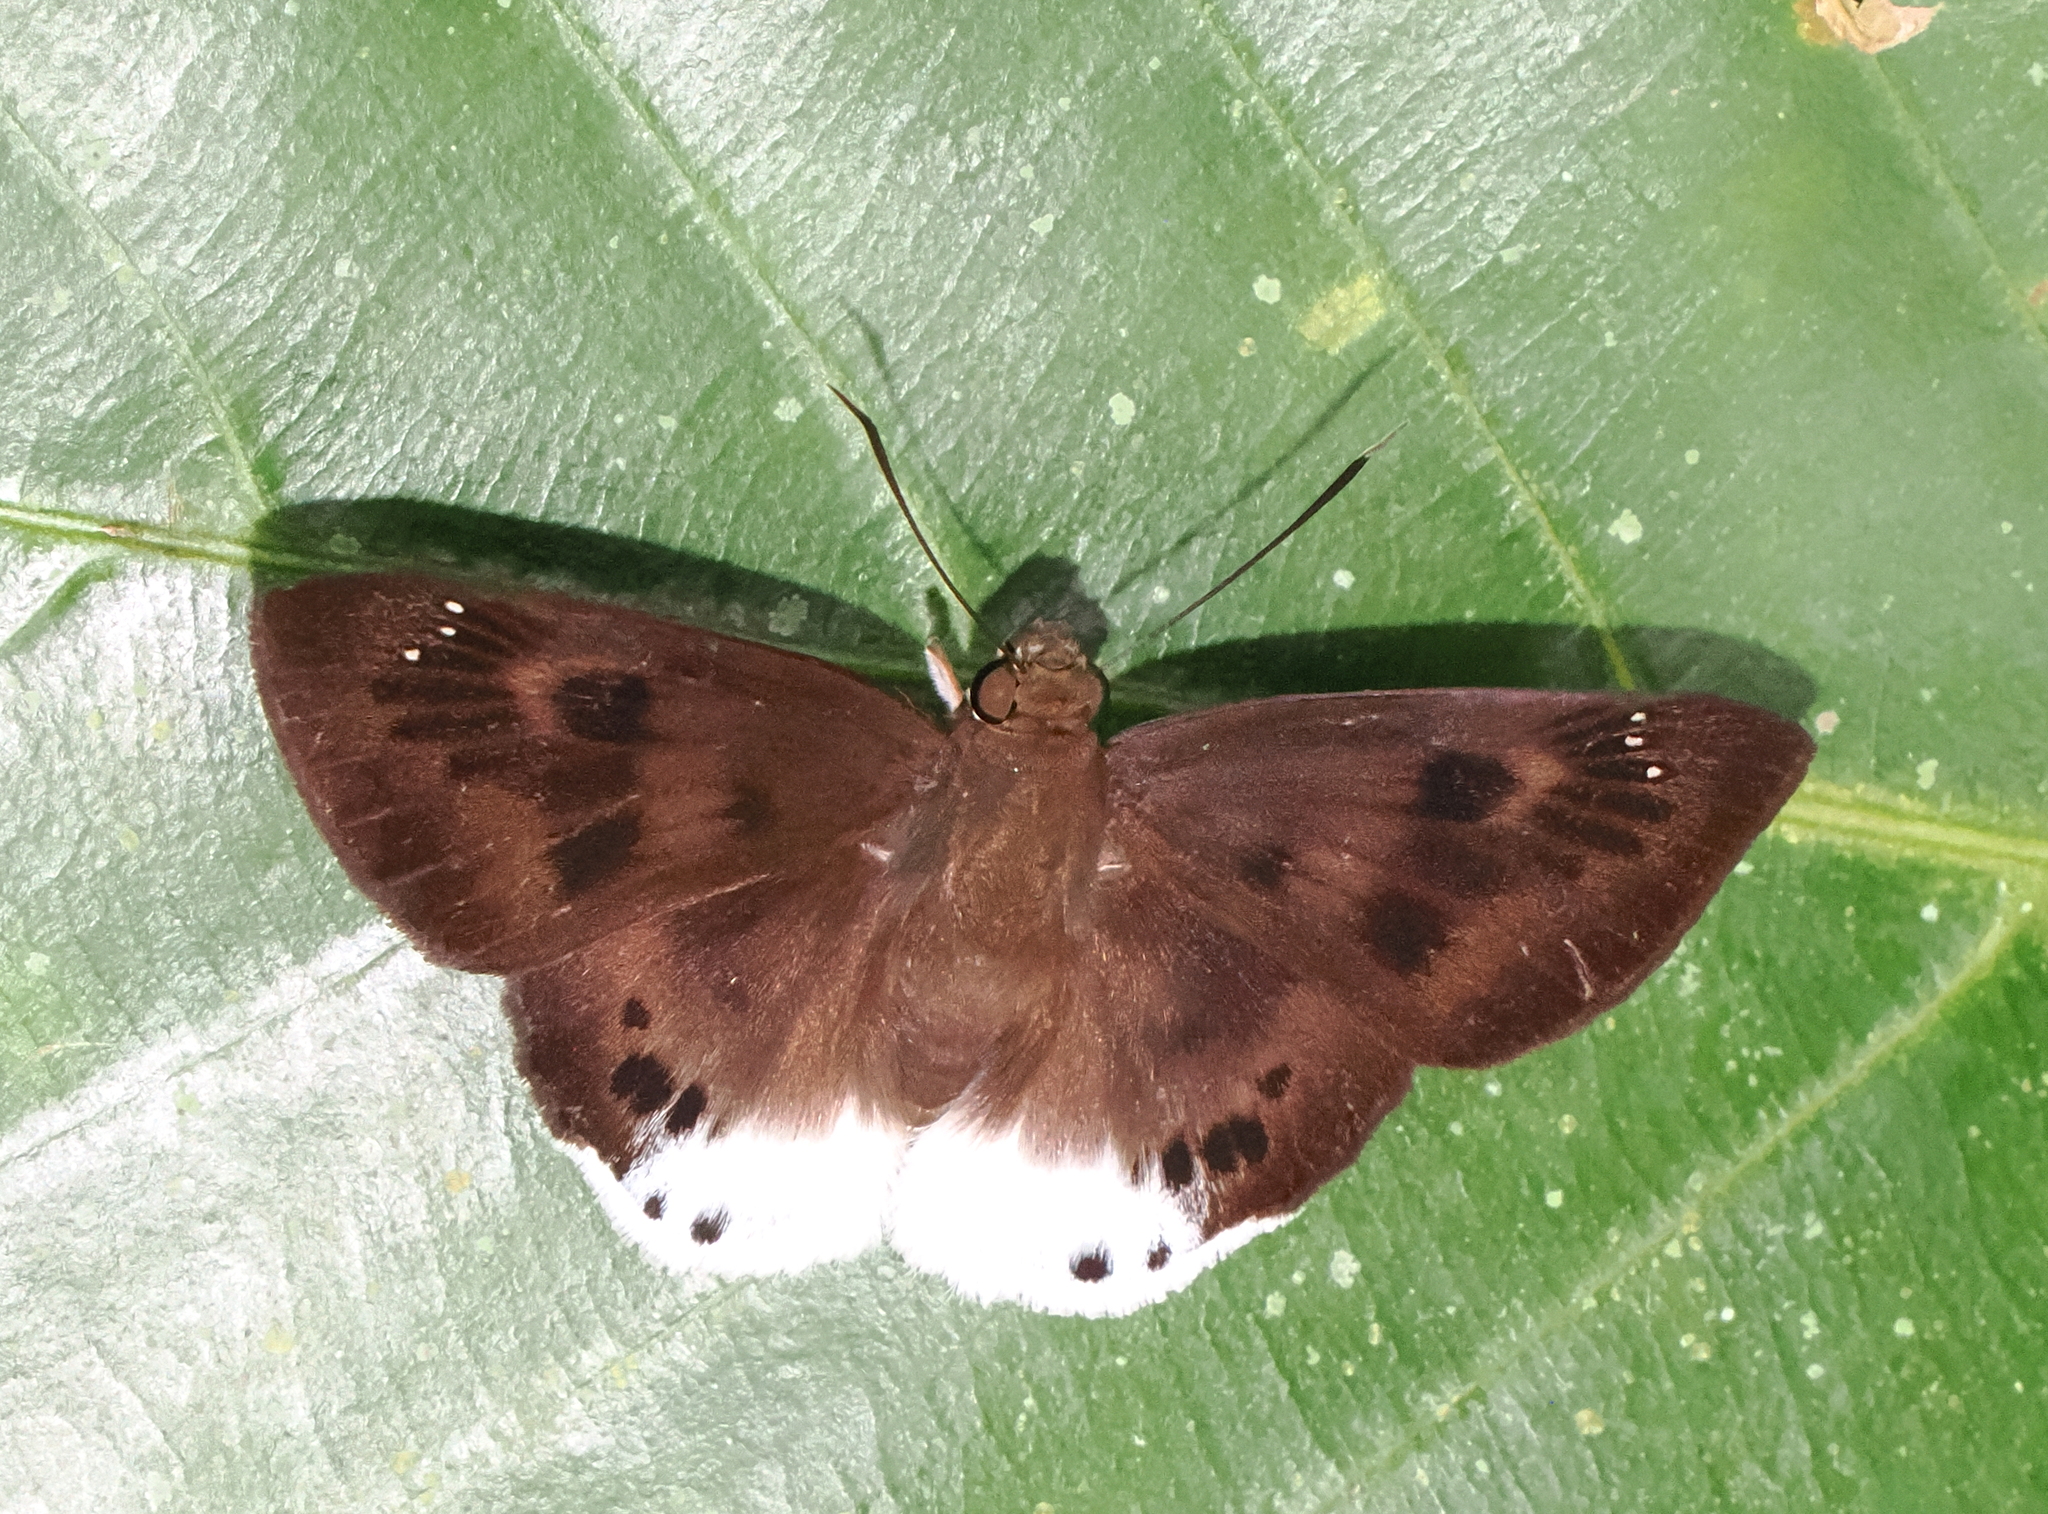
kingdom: Animalia
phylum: Arthropoda
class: Insecta
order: Lepidoptera
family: Hesperiidae
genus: Tagiades
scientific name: Tagiades gana
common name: Suffused snow flat
